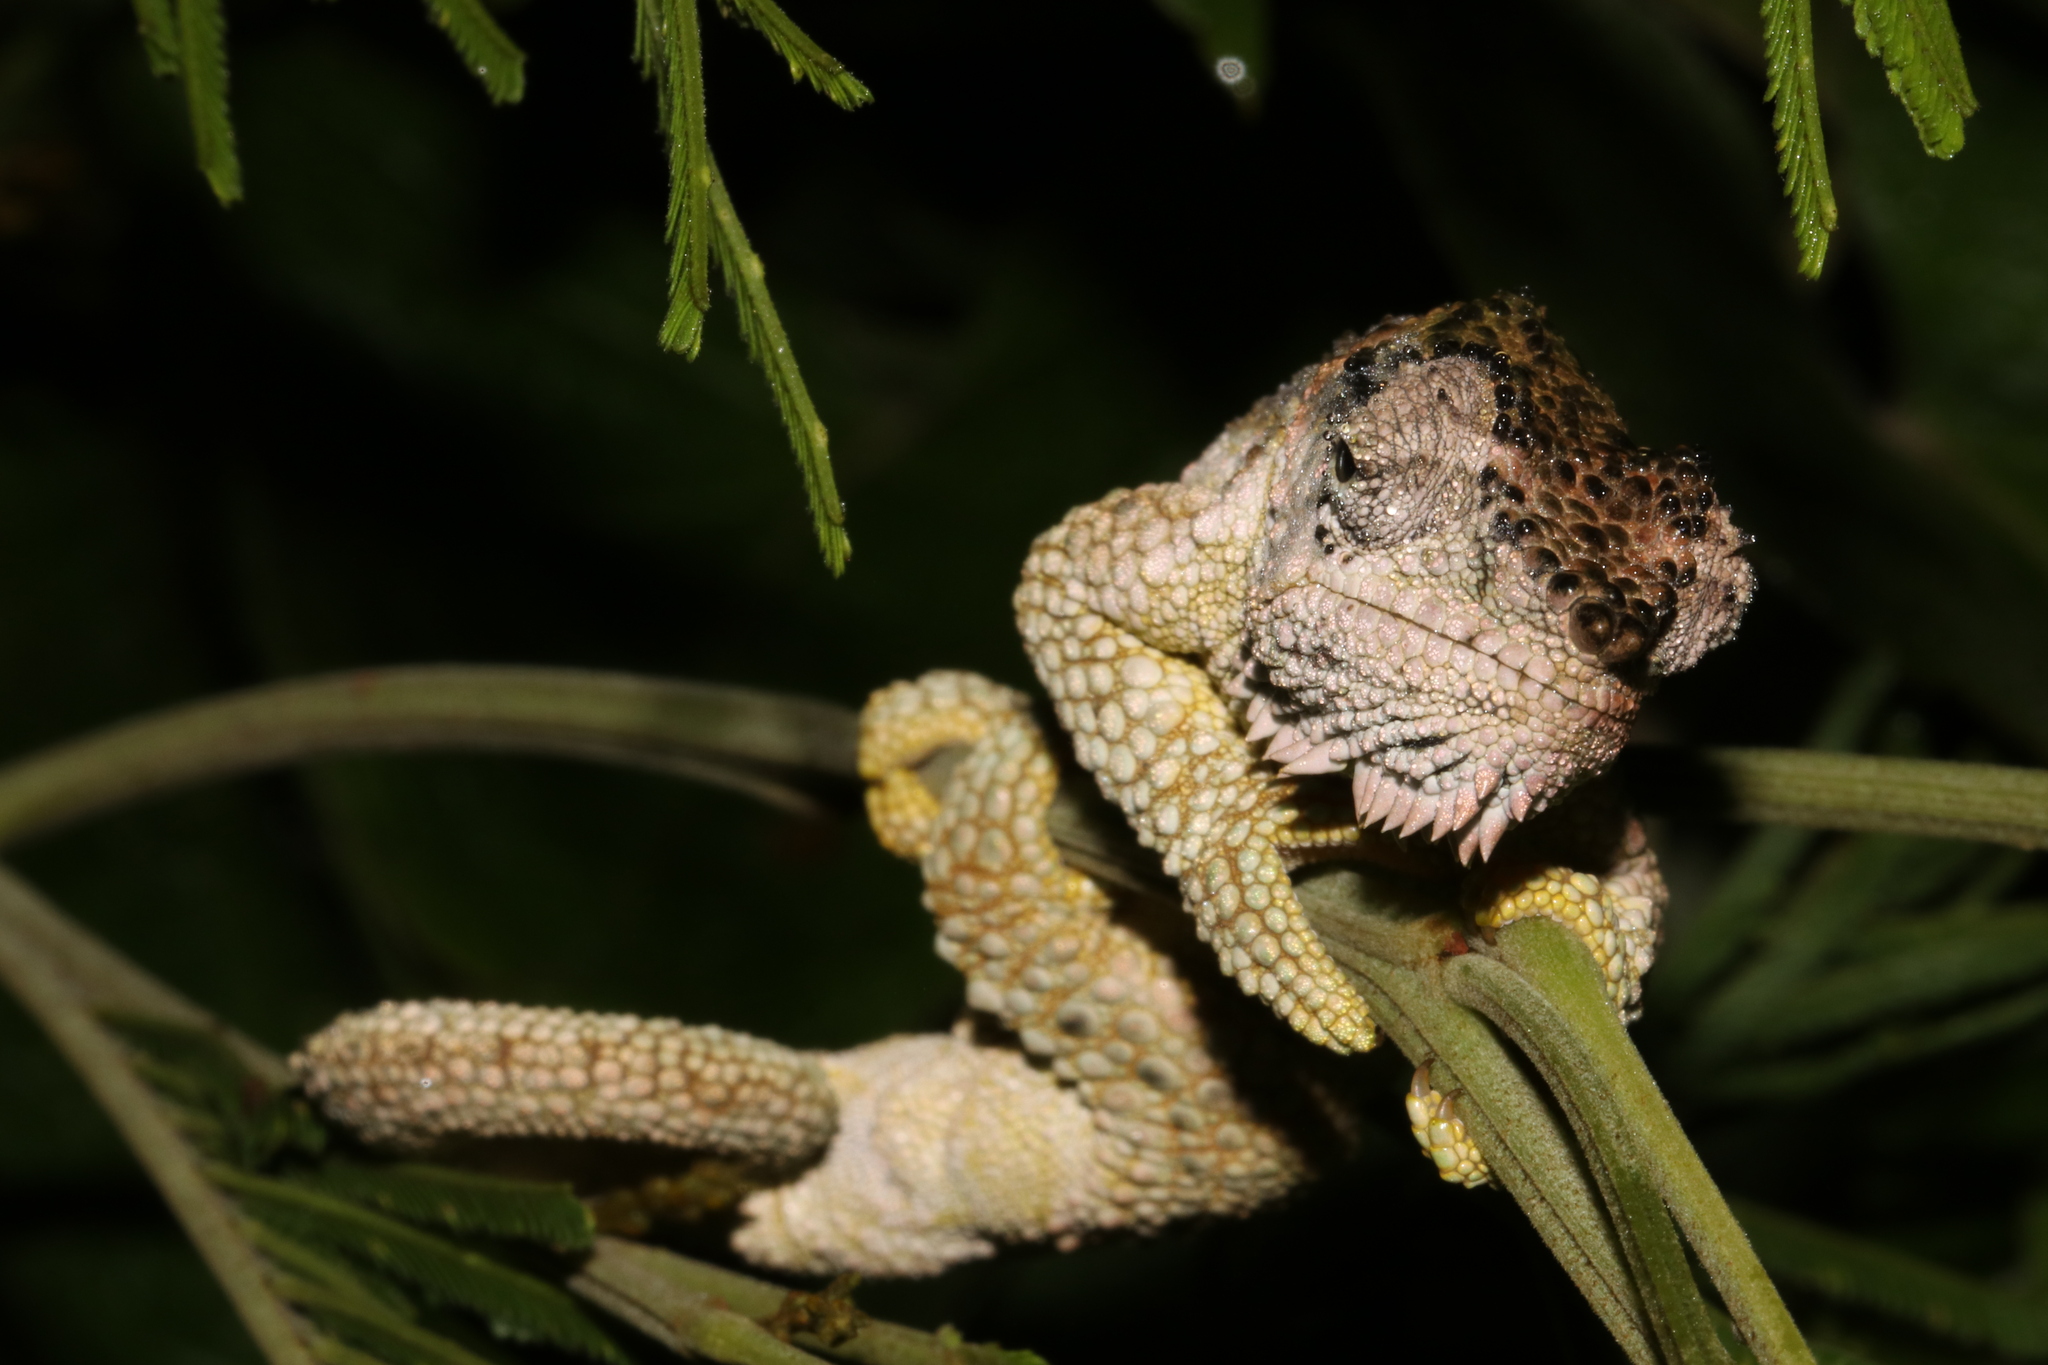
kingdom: Animalia
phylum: Chordata
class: Squamata
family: Chamaeleonidae
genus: Trioceros
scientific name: Trioceros tempeli
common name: Tanzania mountain chameleon
